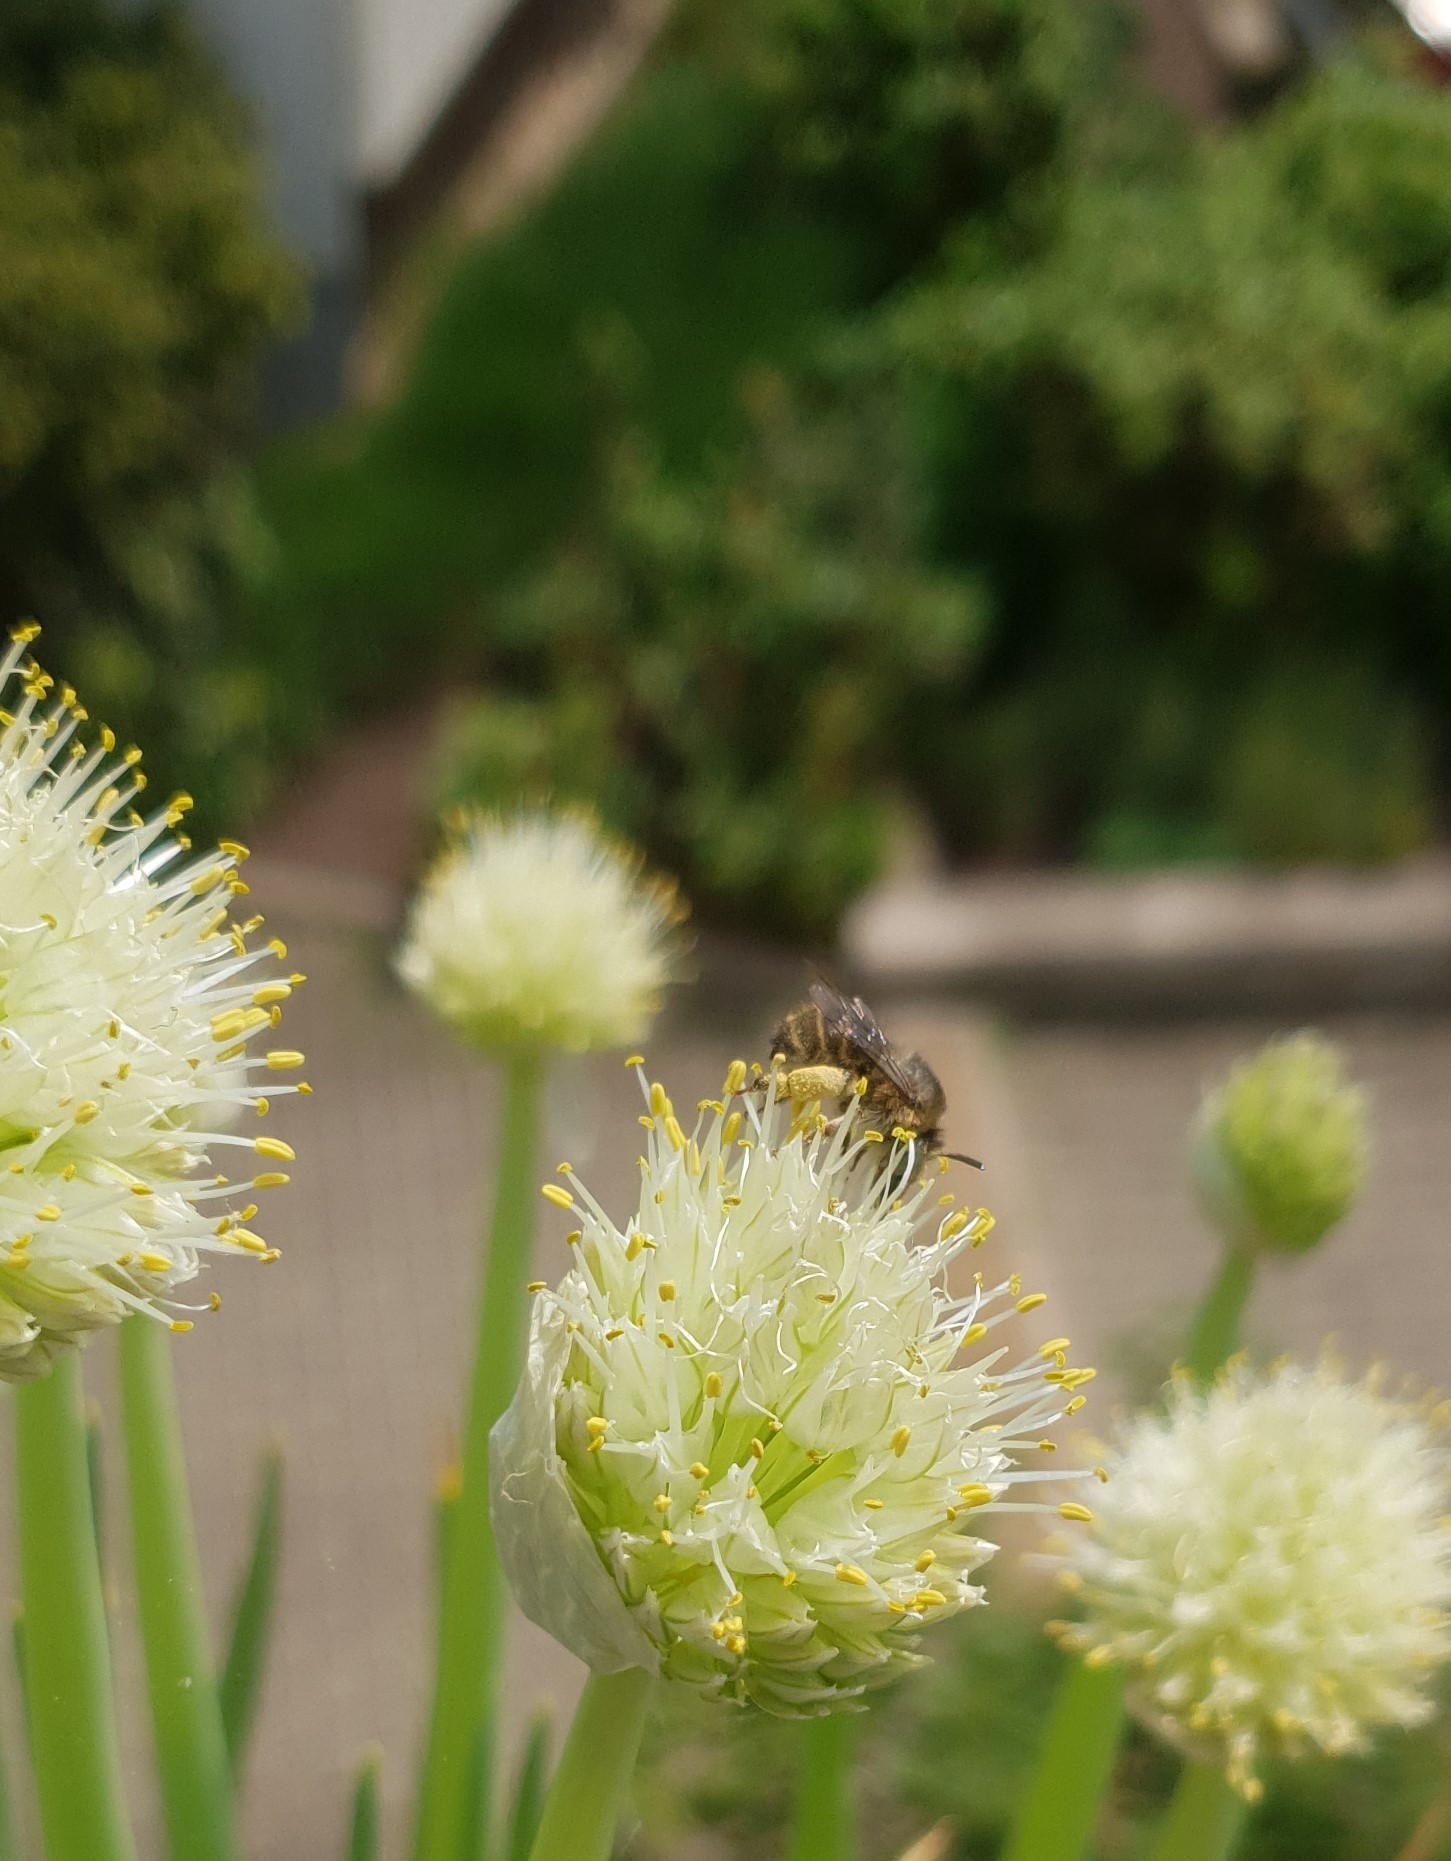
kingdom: Animalia
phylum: Arthropoda
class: Insecta
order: Hymenoptera
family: Apidae
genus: Anthophora
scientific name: Anthophora quadrimaculata
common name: Four-banded flower bee
